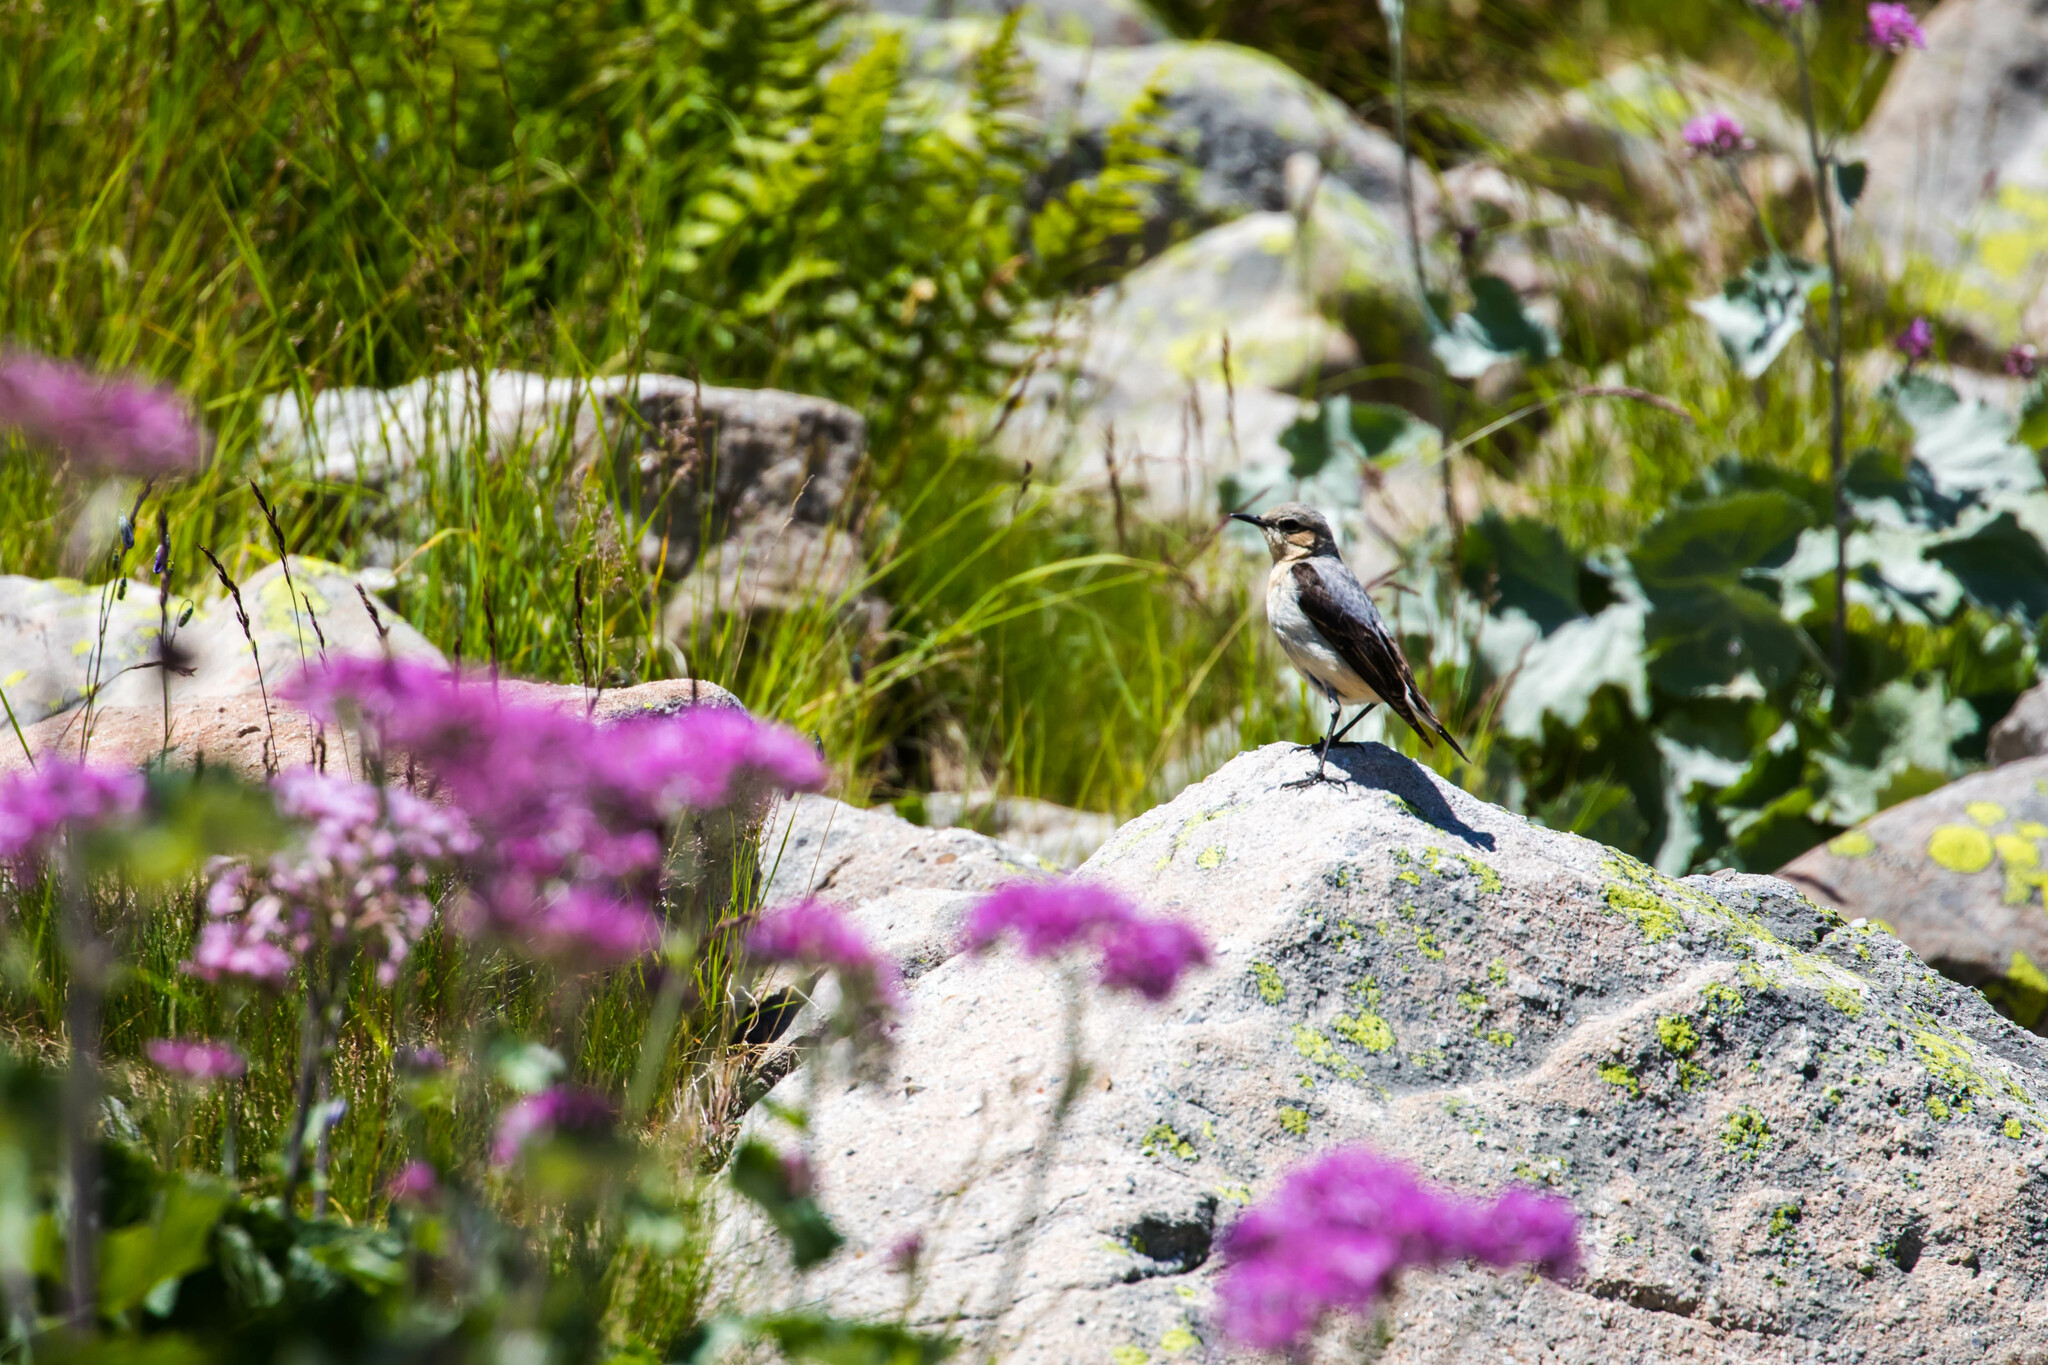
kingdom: Animalia
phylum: Chordata
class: Aves
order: Passeriformes
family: Muscicapidae
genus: Oenanthe
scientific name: Oenanthe oenanthe
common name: Northern wheatear
